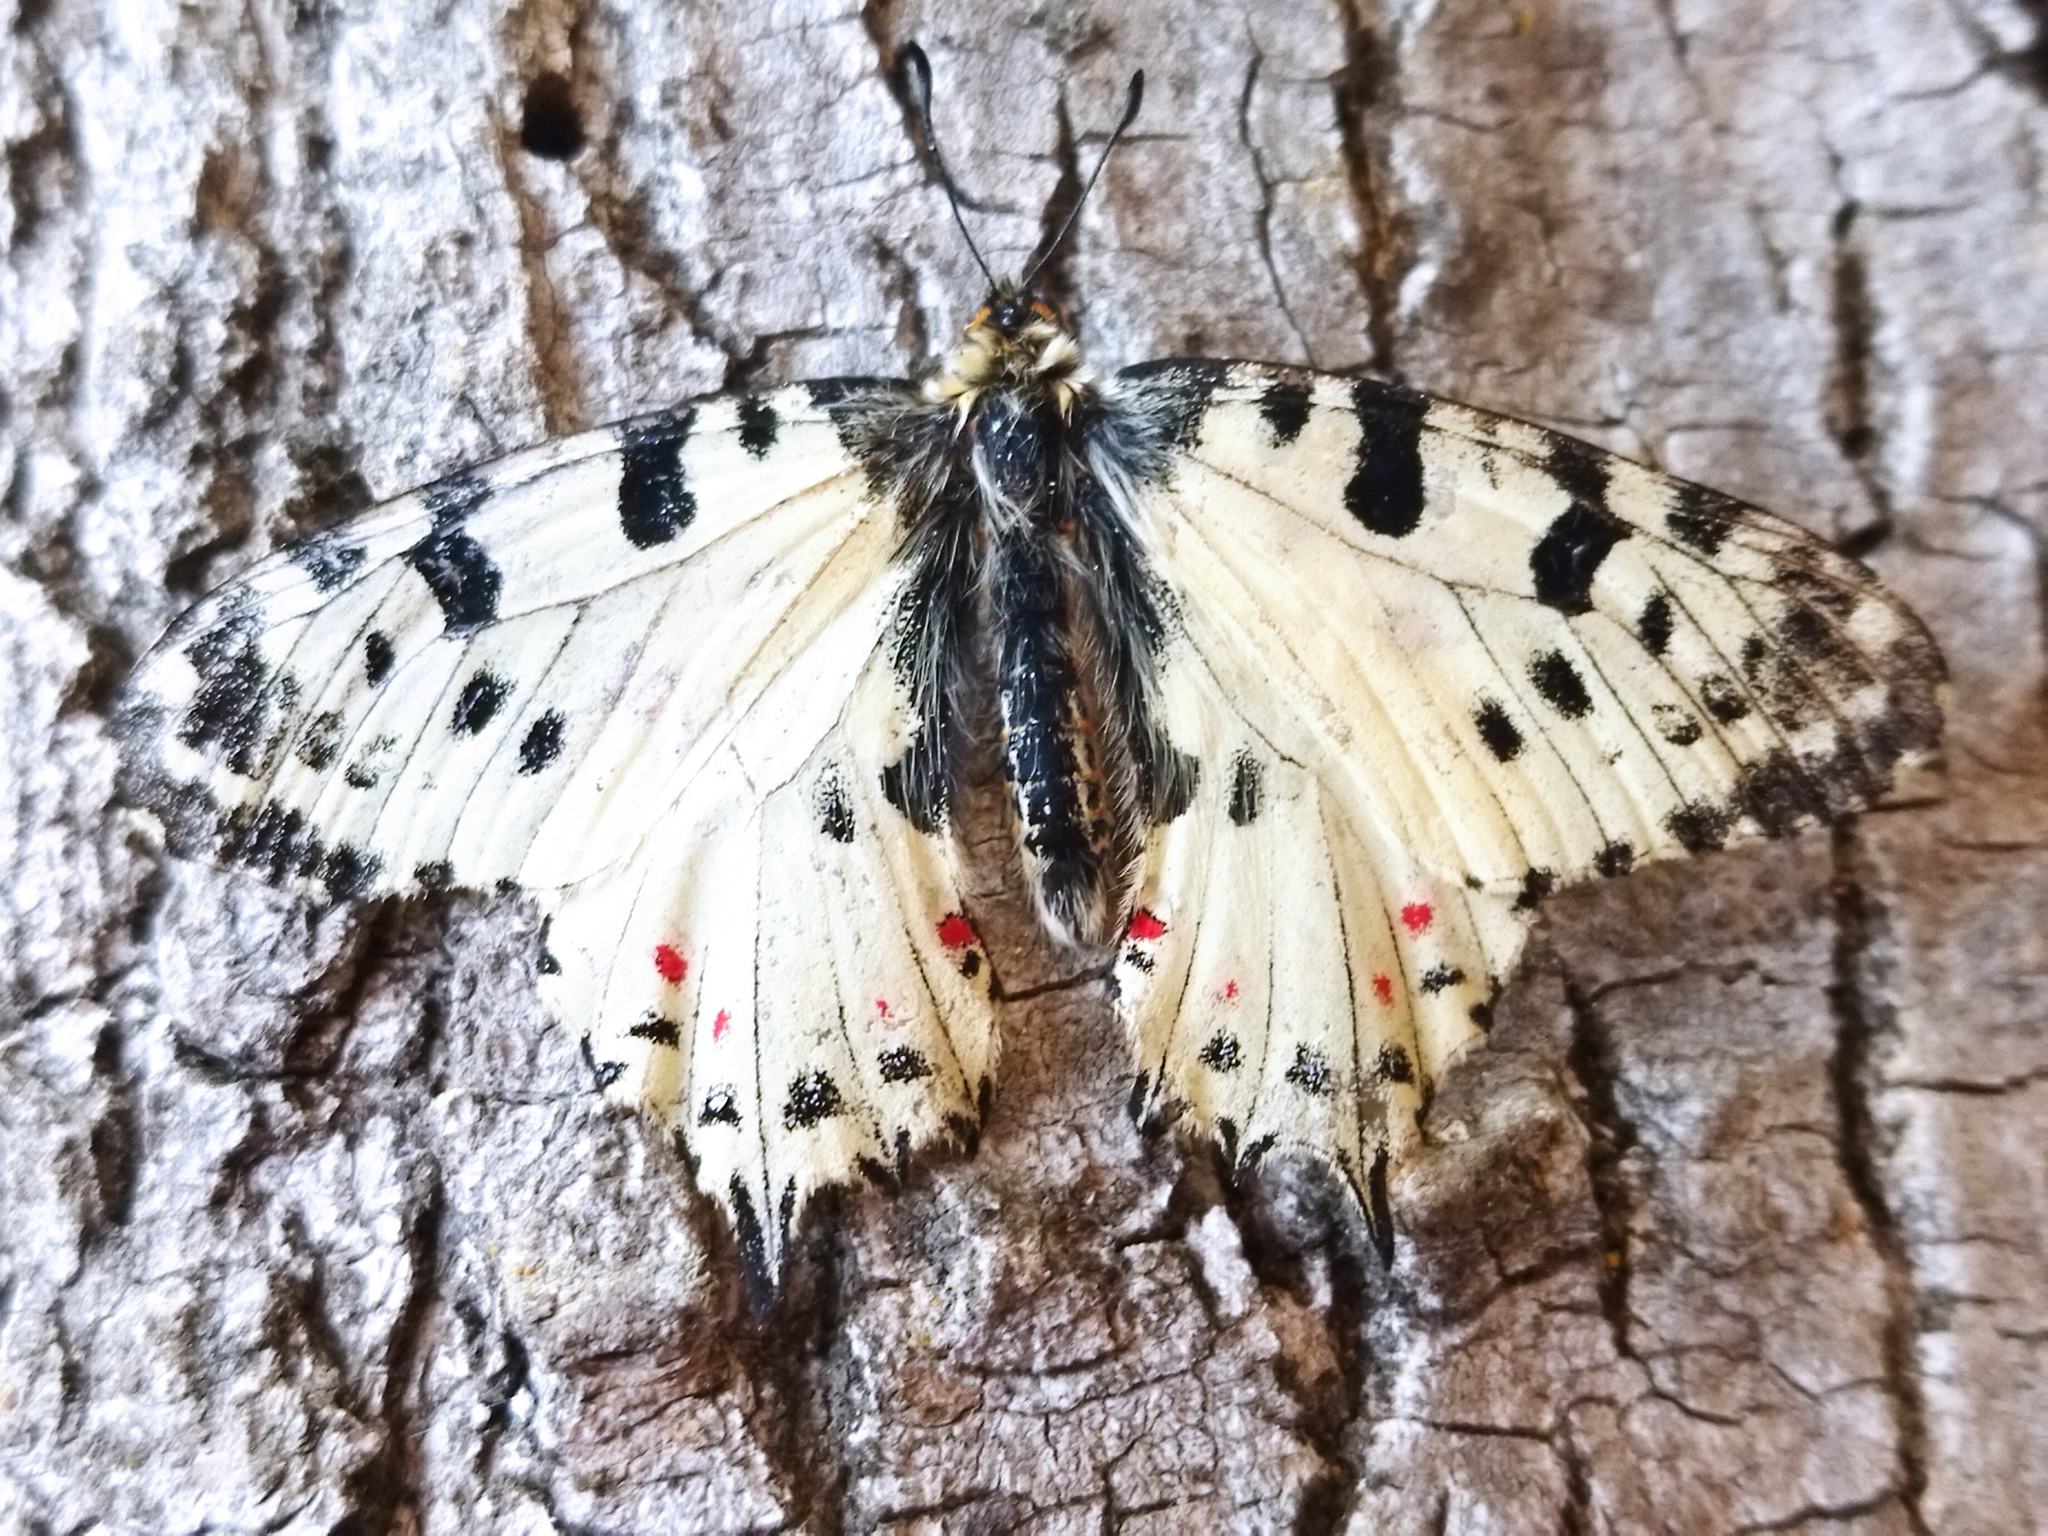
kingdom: Animalia
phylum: Arthropoda
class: Insecta
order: Lepidoptera
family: Papilionidae
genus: Zerynthia
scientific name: Zerynthia cerisy
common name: Eastern festoon
